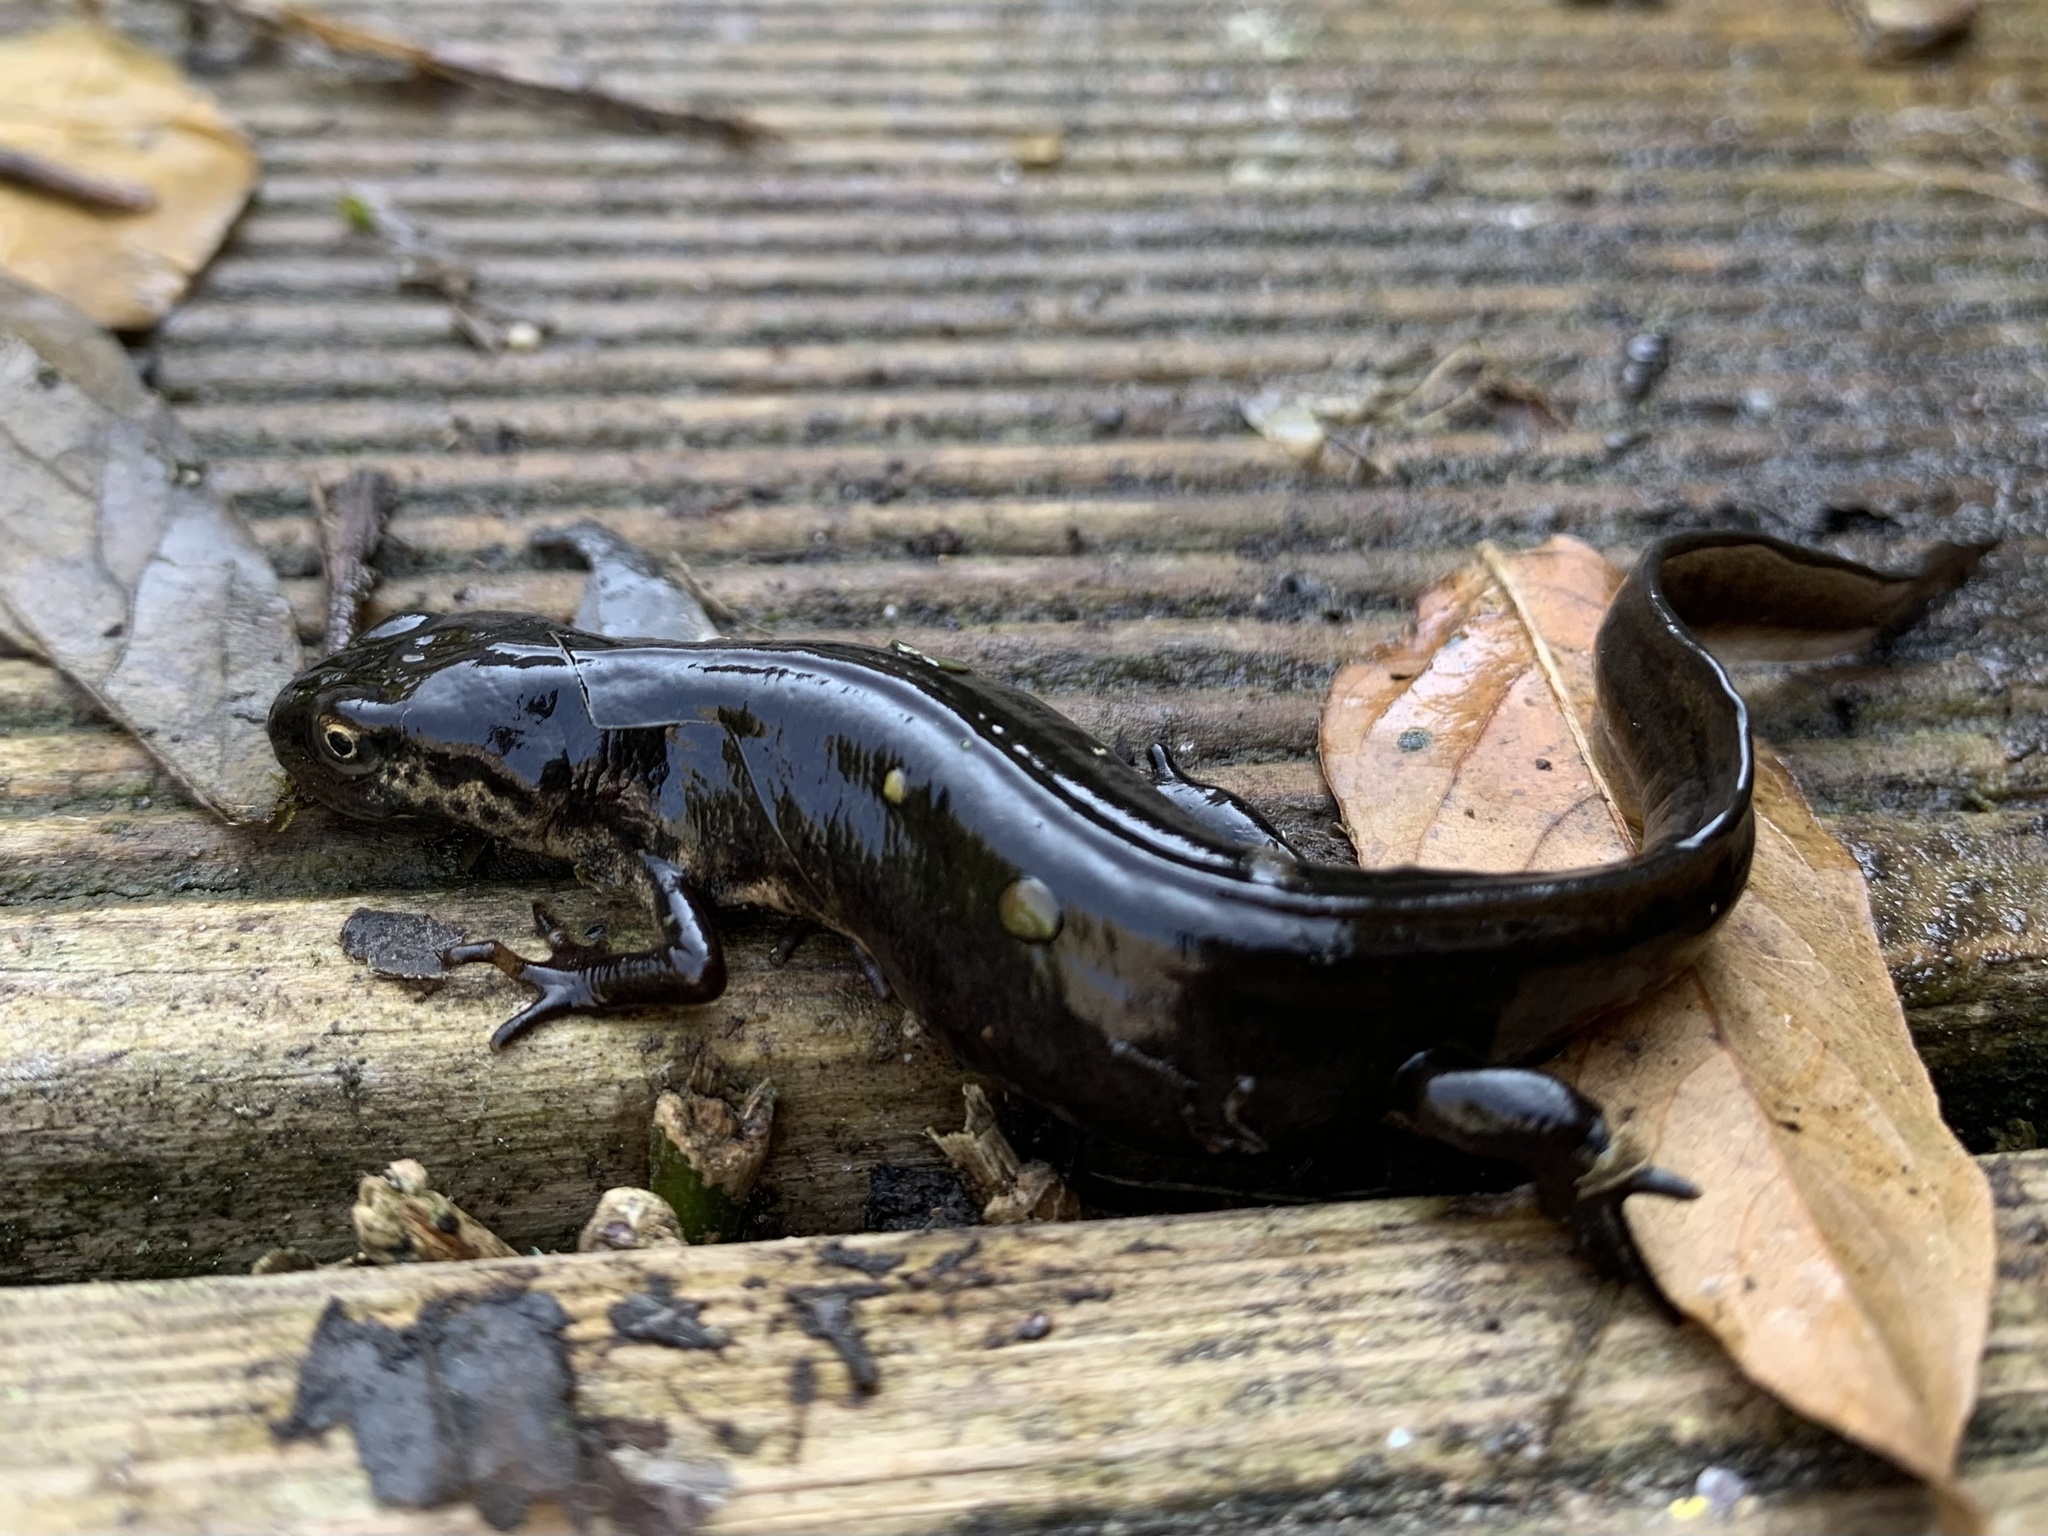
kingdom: Animalia
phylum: Chordata
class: Amphibia
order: Caudata
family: Salamandridae
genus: Ichthyosaura
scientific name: Ichthyosaura alpestris
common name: Alpine newt
